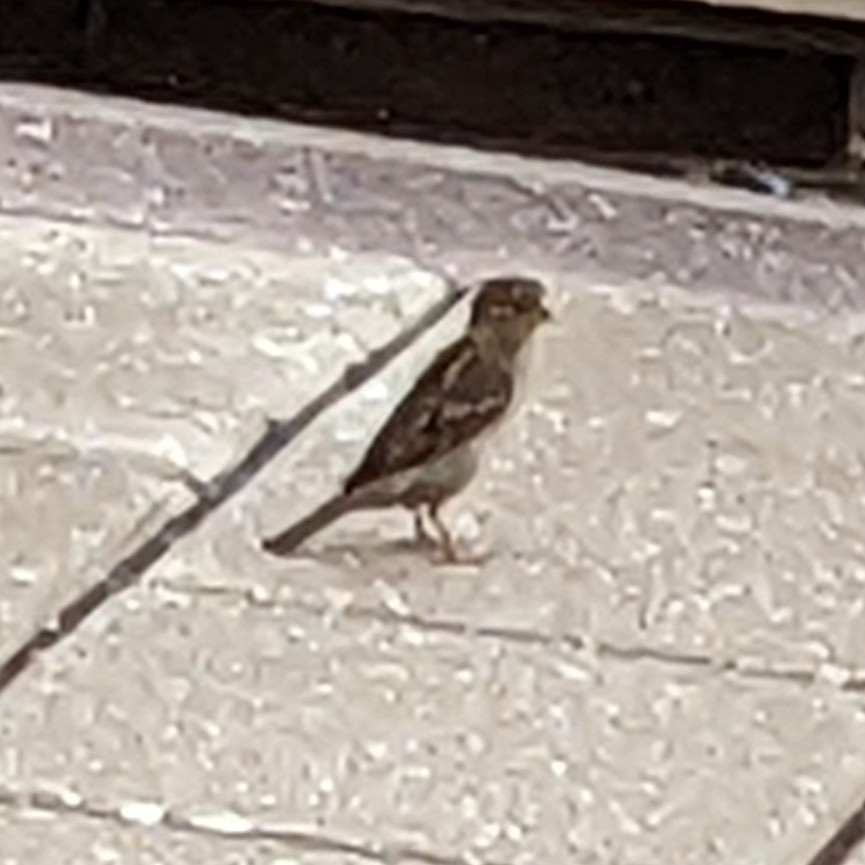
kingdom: Animalia
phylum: Chordata
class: Aves
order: Passeriformes
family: Passeridae
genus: Passer
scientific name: Passer domesticus
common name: House sparrow
